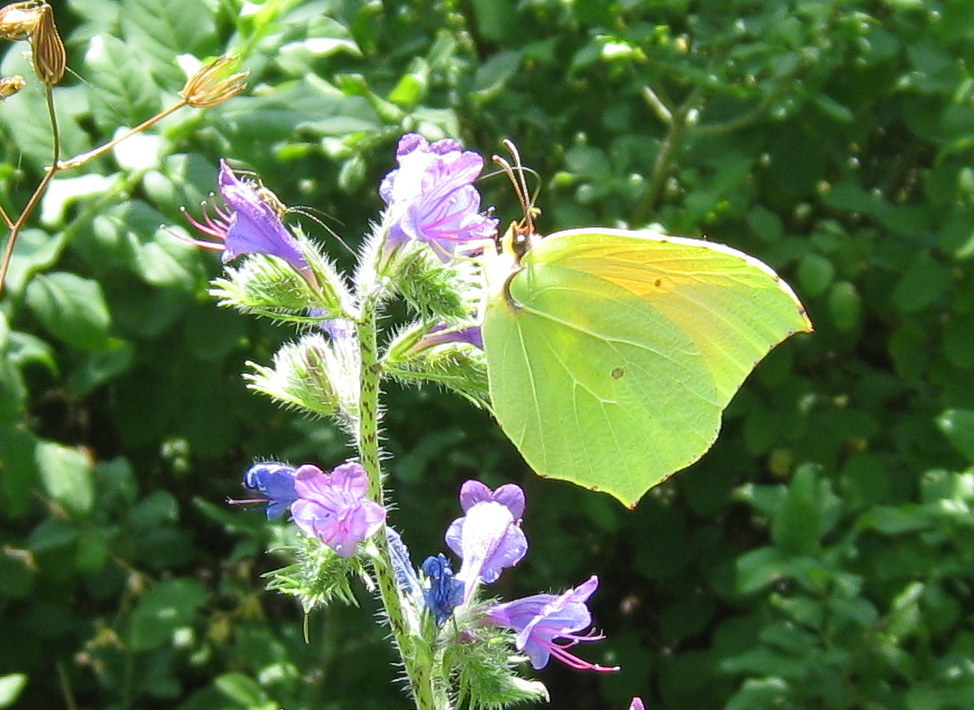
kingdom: Animalia
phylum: Arthropoda
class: Insecta
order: Lepidoptera
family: Pieridae
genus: Gonepteryx
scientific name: Gonepteryx cleopatra
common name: Cleopatra
